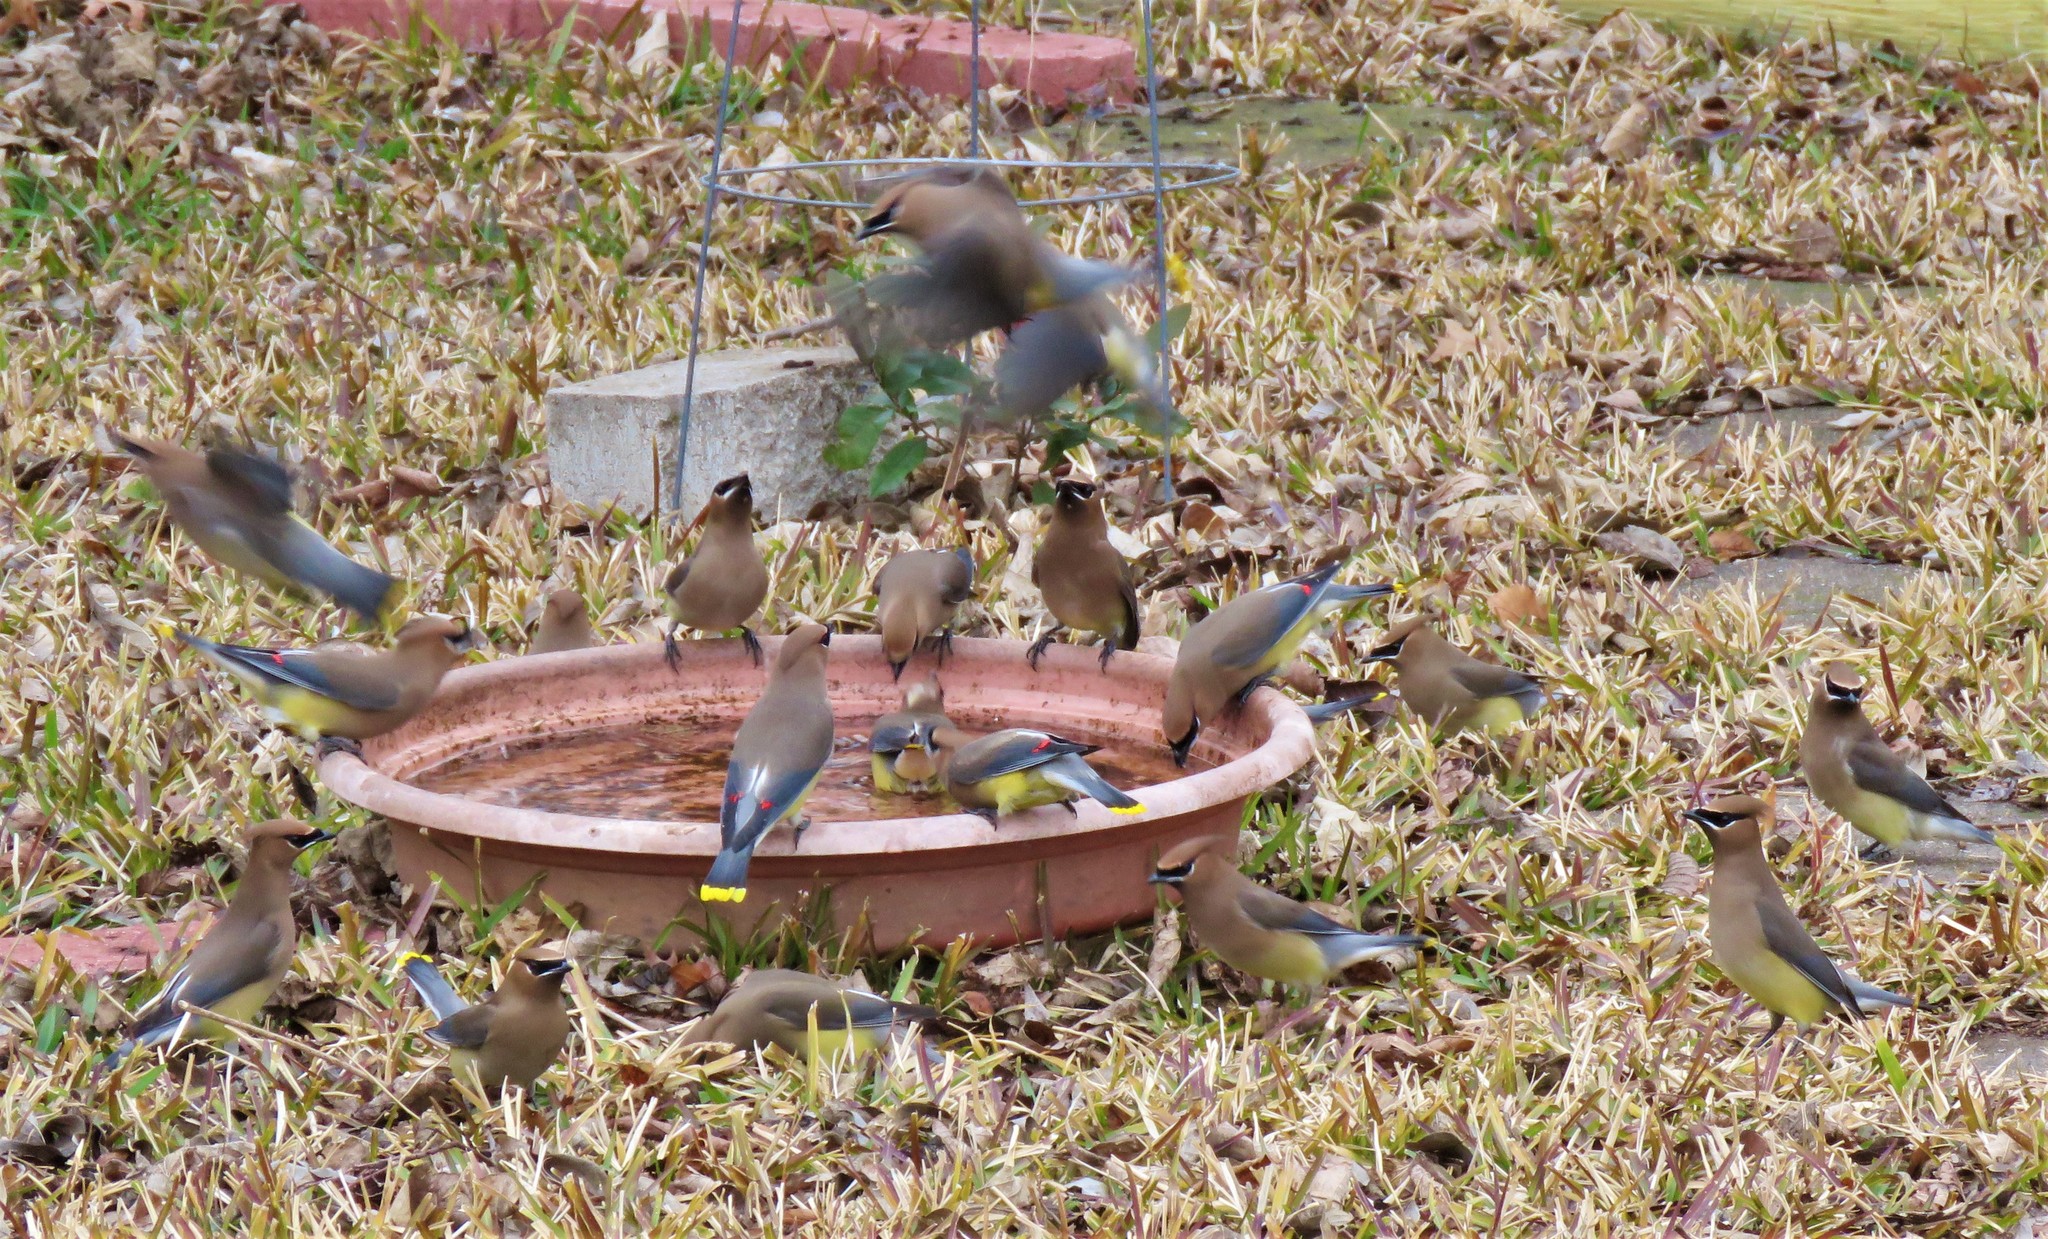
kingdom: Animalia
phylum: Chordata
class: Aves
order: Passeriformes
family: Bombycillidae
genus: Bombycilla
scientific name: Bombycilla cedrorum
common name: Cedar waxwing
